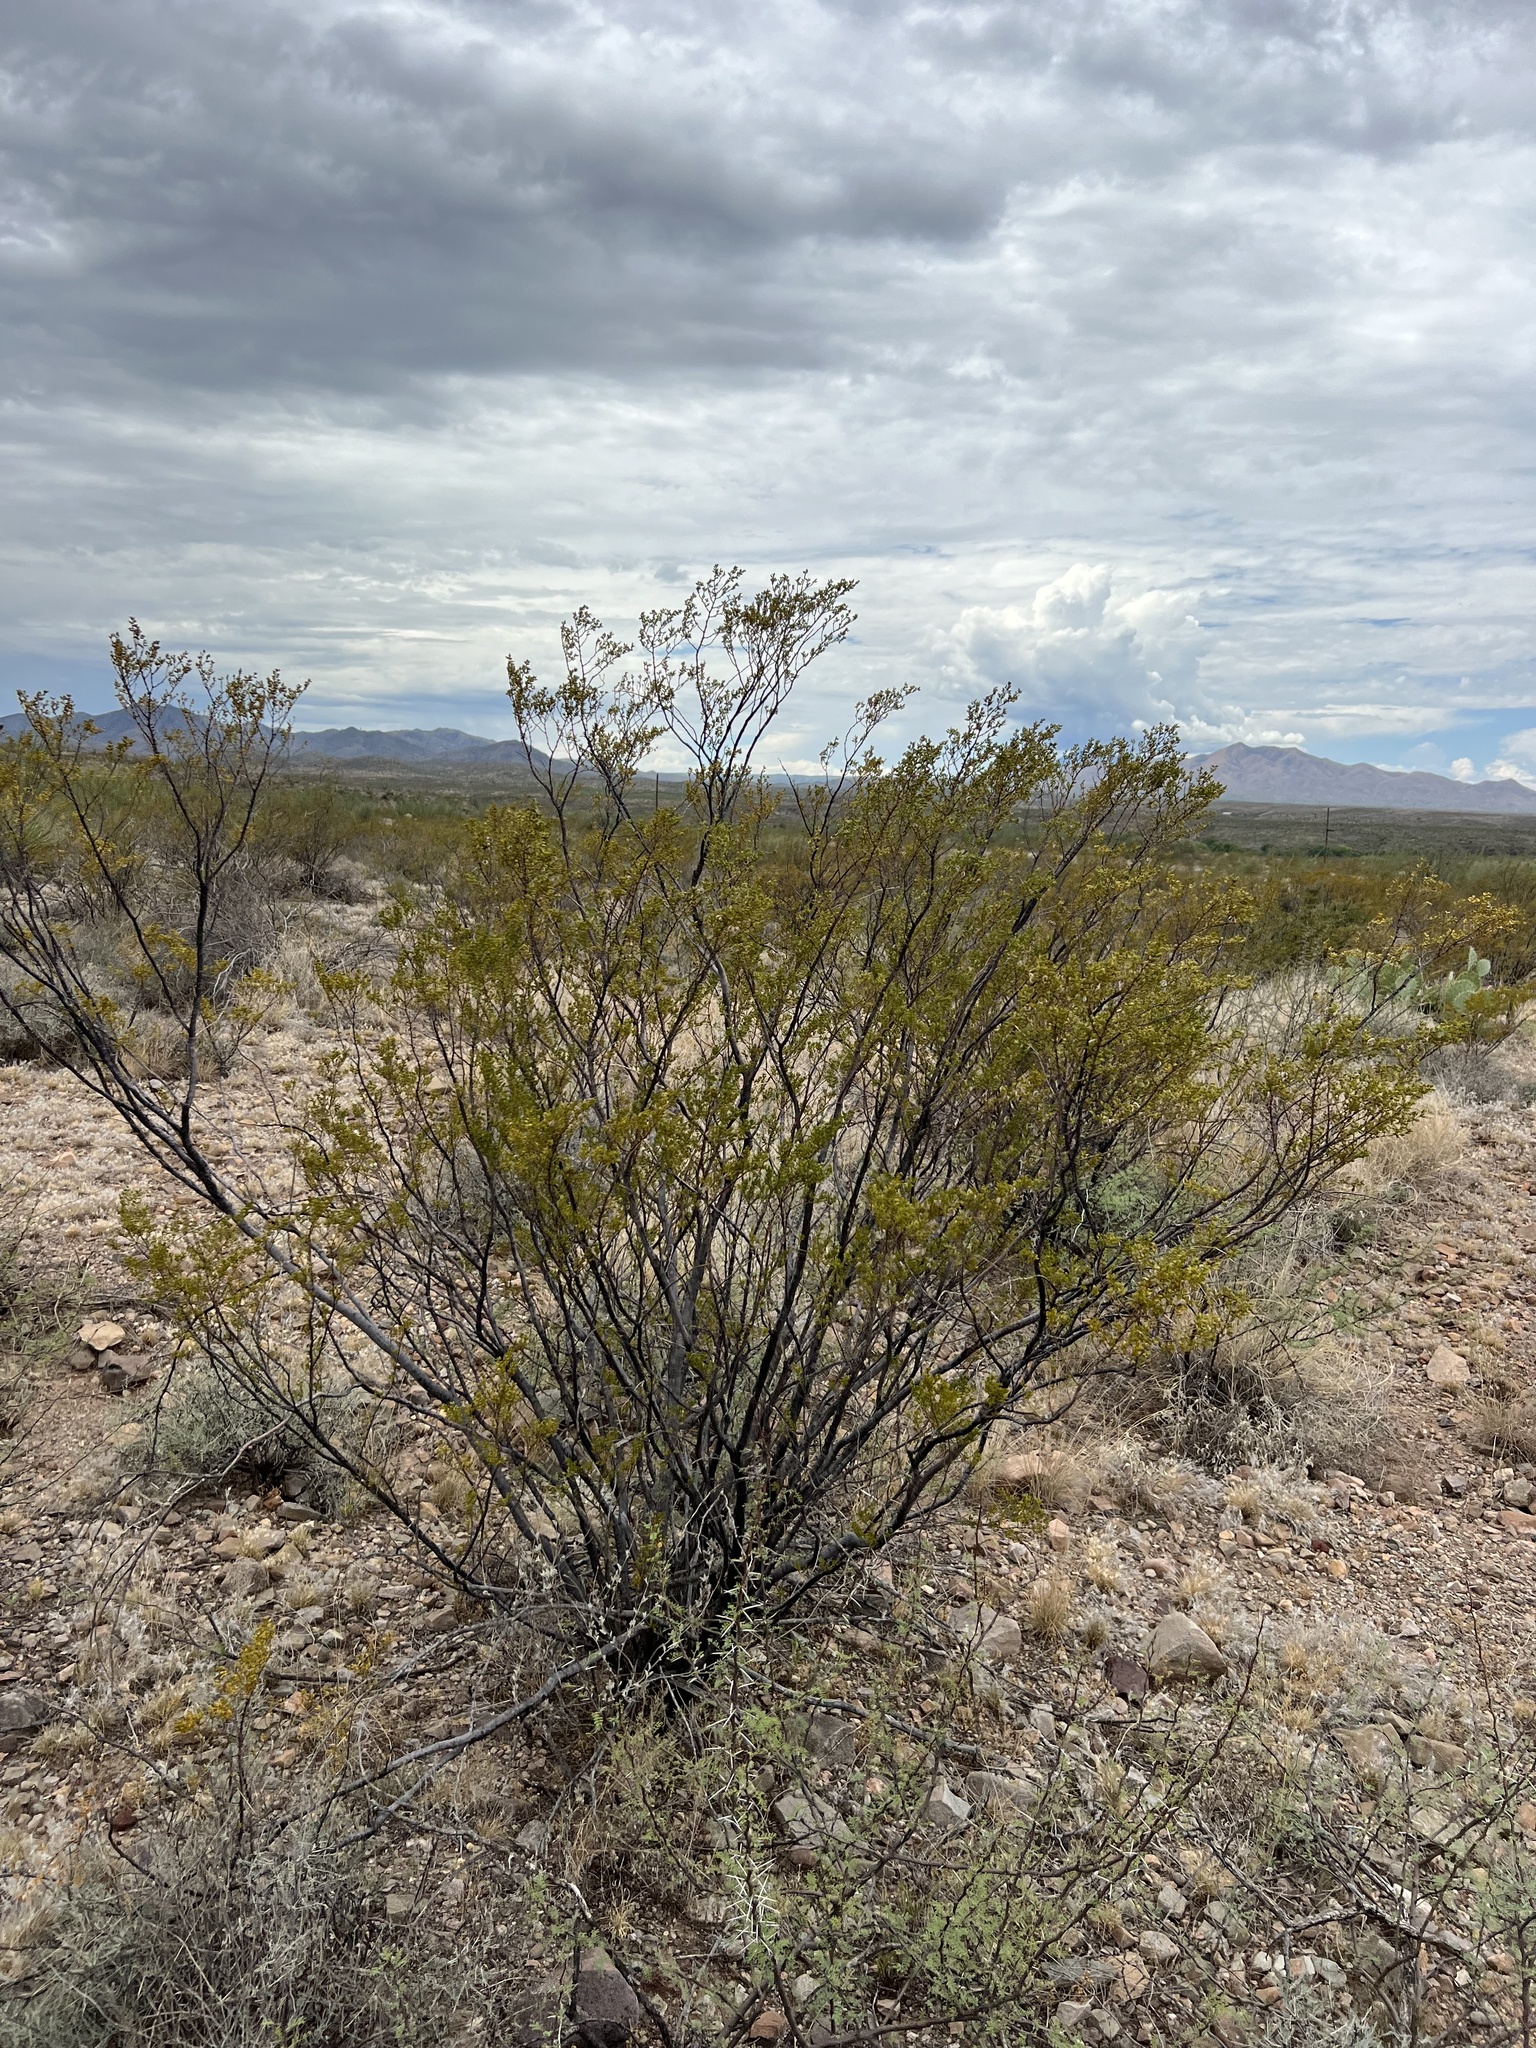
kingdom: Plantae
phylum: Tracheophyta
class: Magnoliopsida
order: Zygophyllales
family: Zygophyllaceae
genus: Larrea
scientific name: Larrea tridentata
